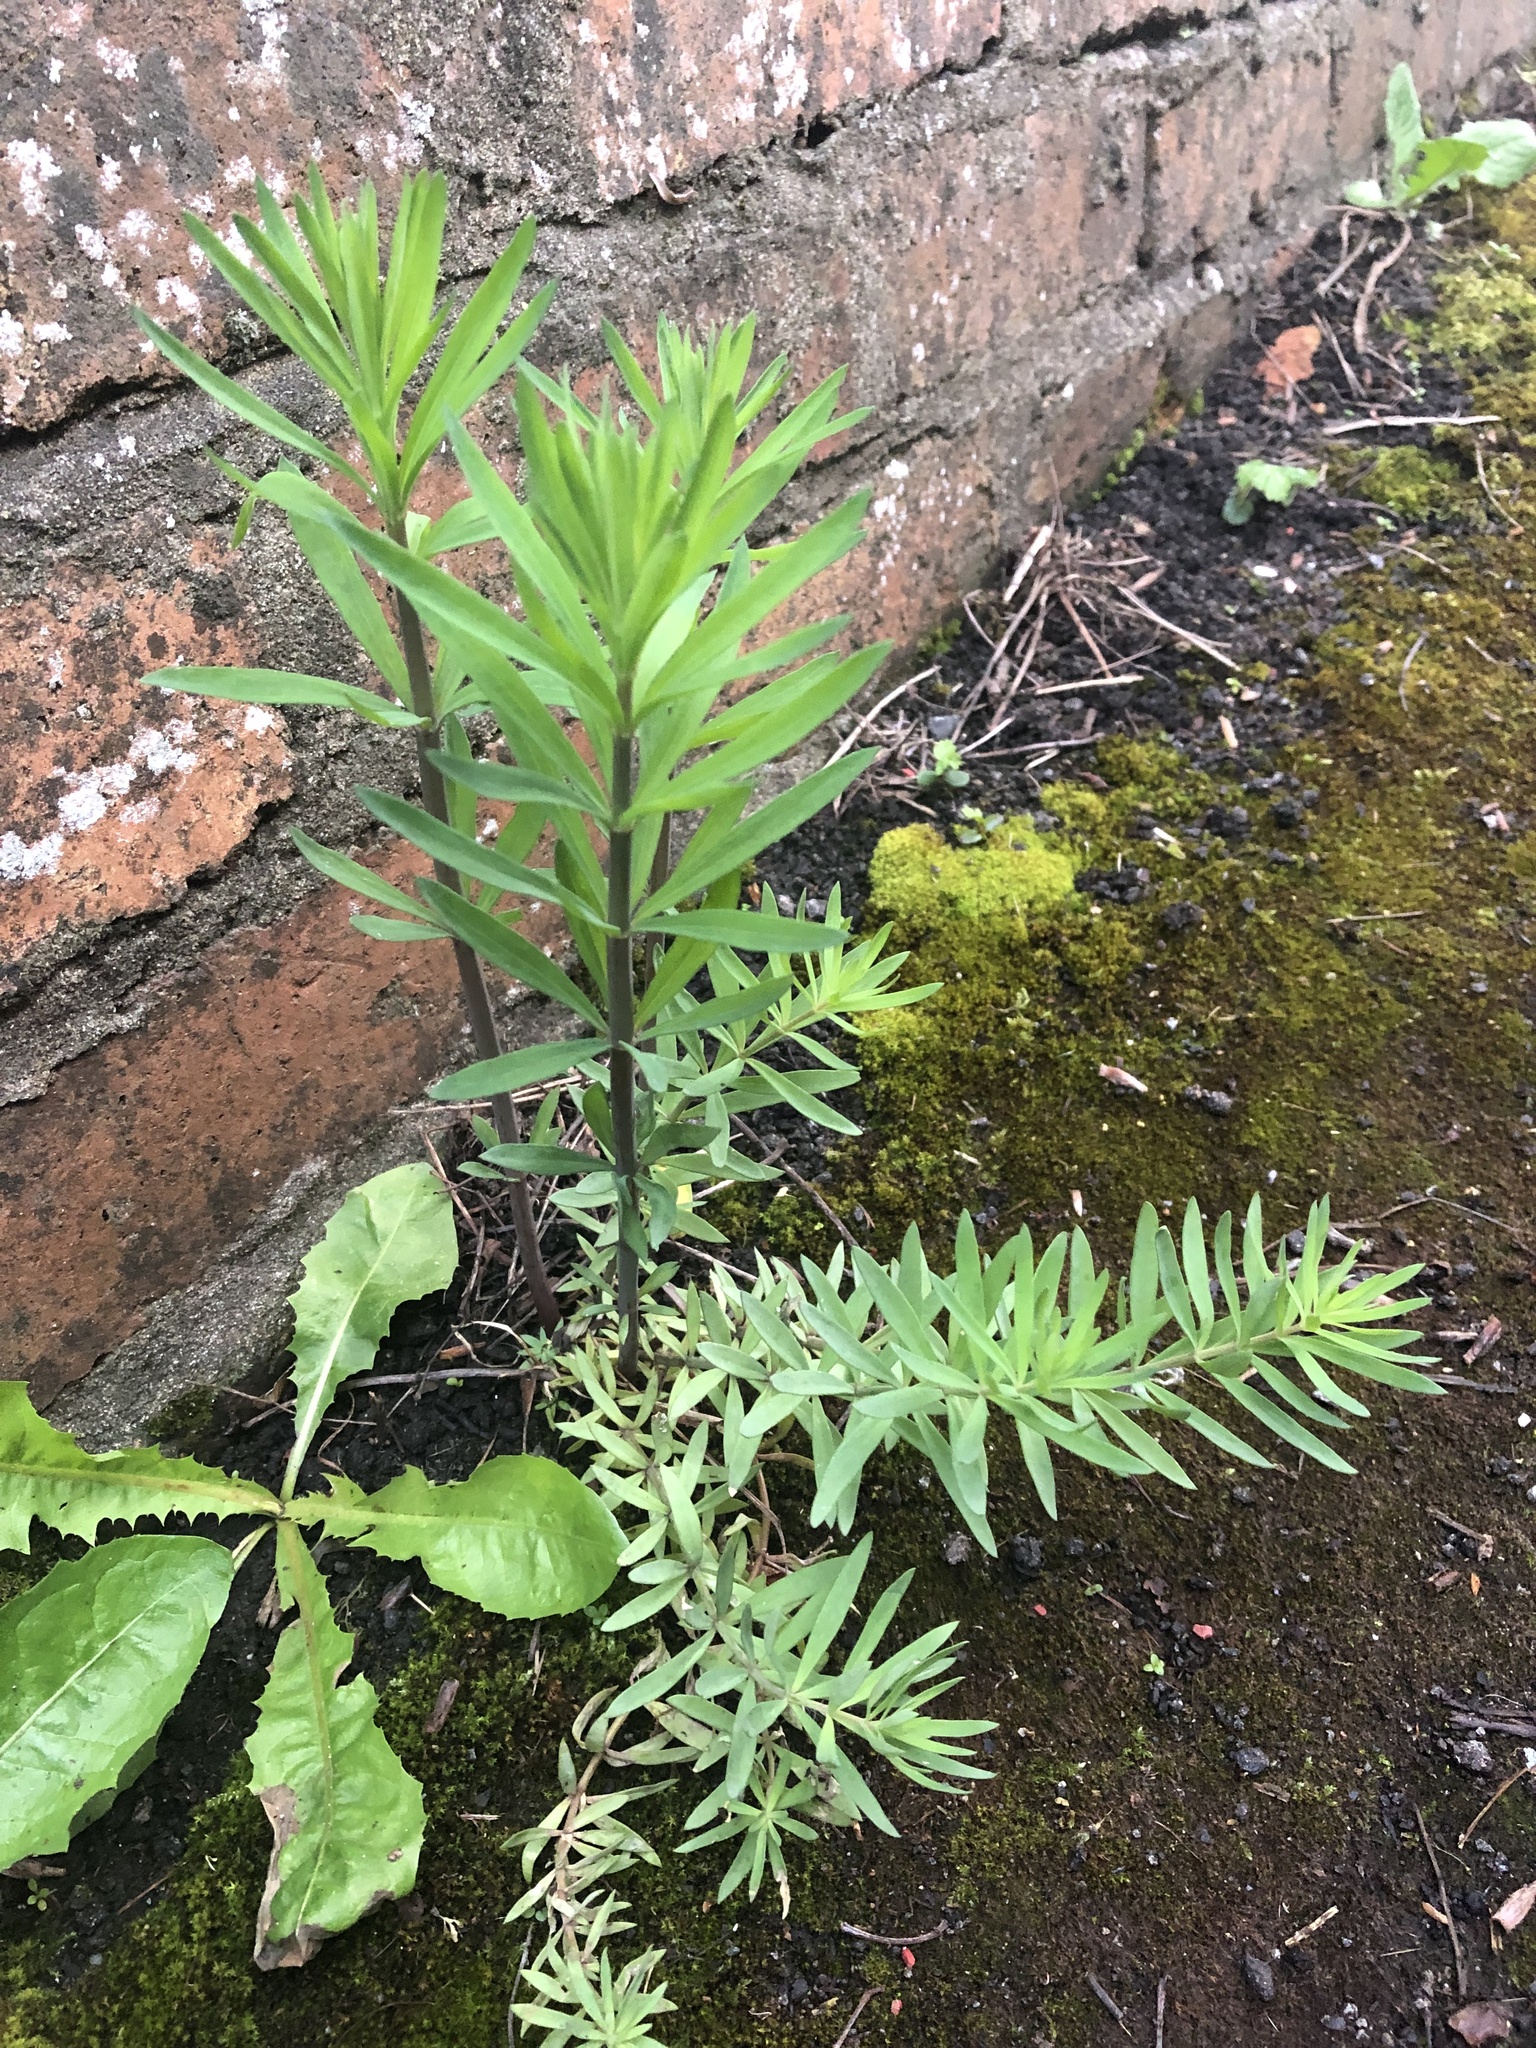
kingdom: Plantae
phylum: Tracheophyta
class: Magnoliopsida
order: Lamiales
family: Plantaginaceae
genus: Linaria
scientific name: Linaria purpurea
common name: Purple toadflax
